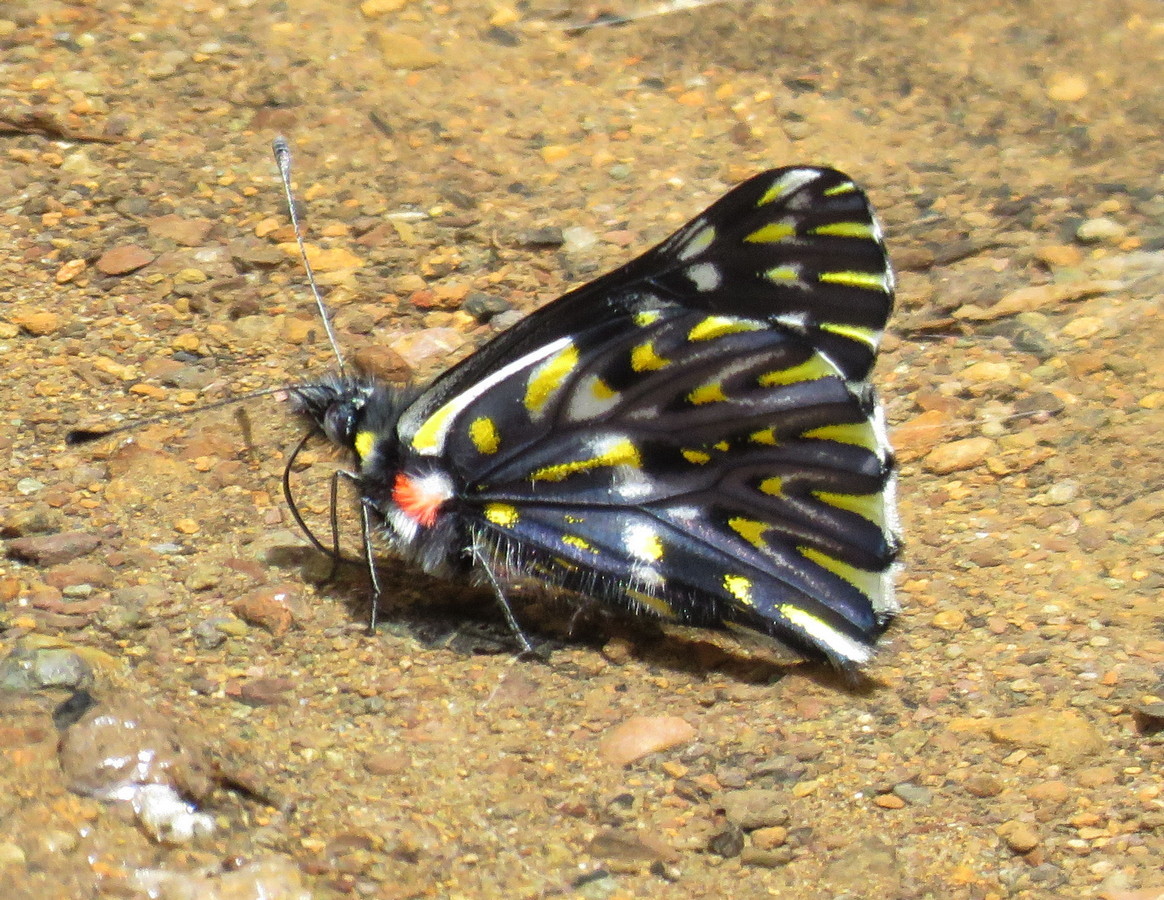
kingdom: Animalia
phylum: Arthropoda
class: Insecta
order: Lepidoptera
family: Pieridae
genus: Archonias
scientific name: Archonias nimbice
